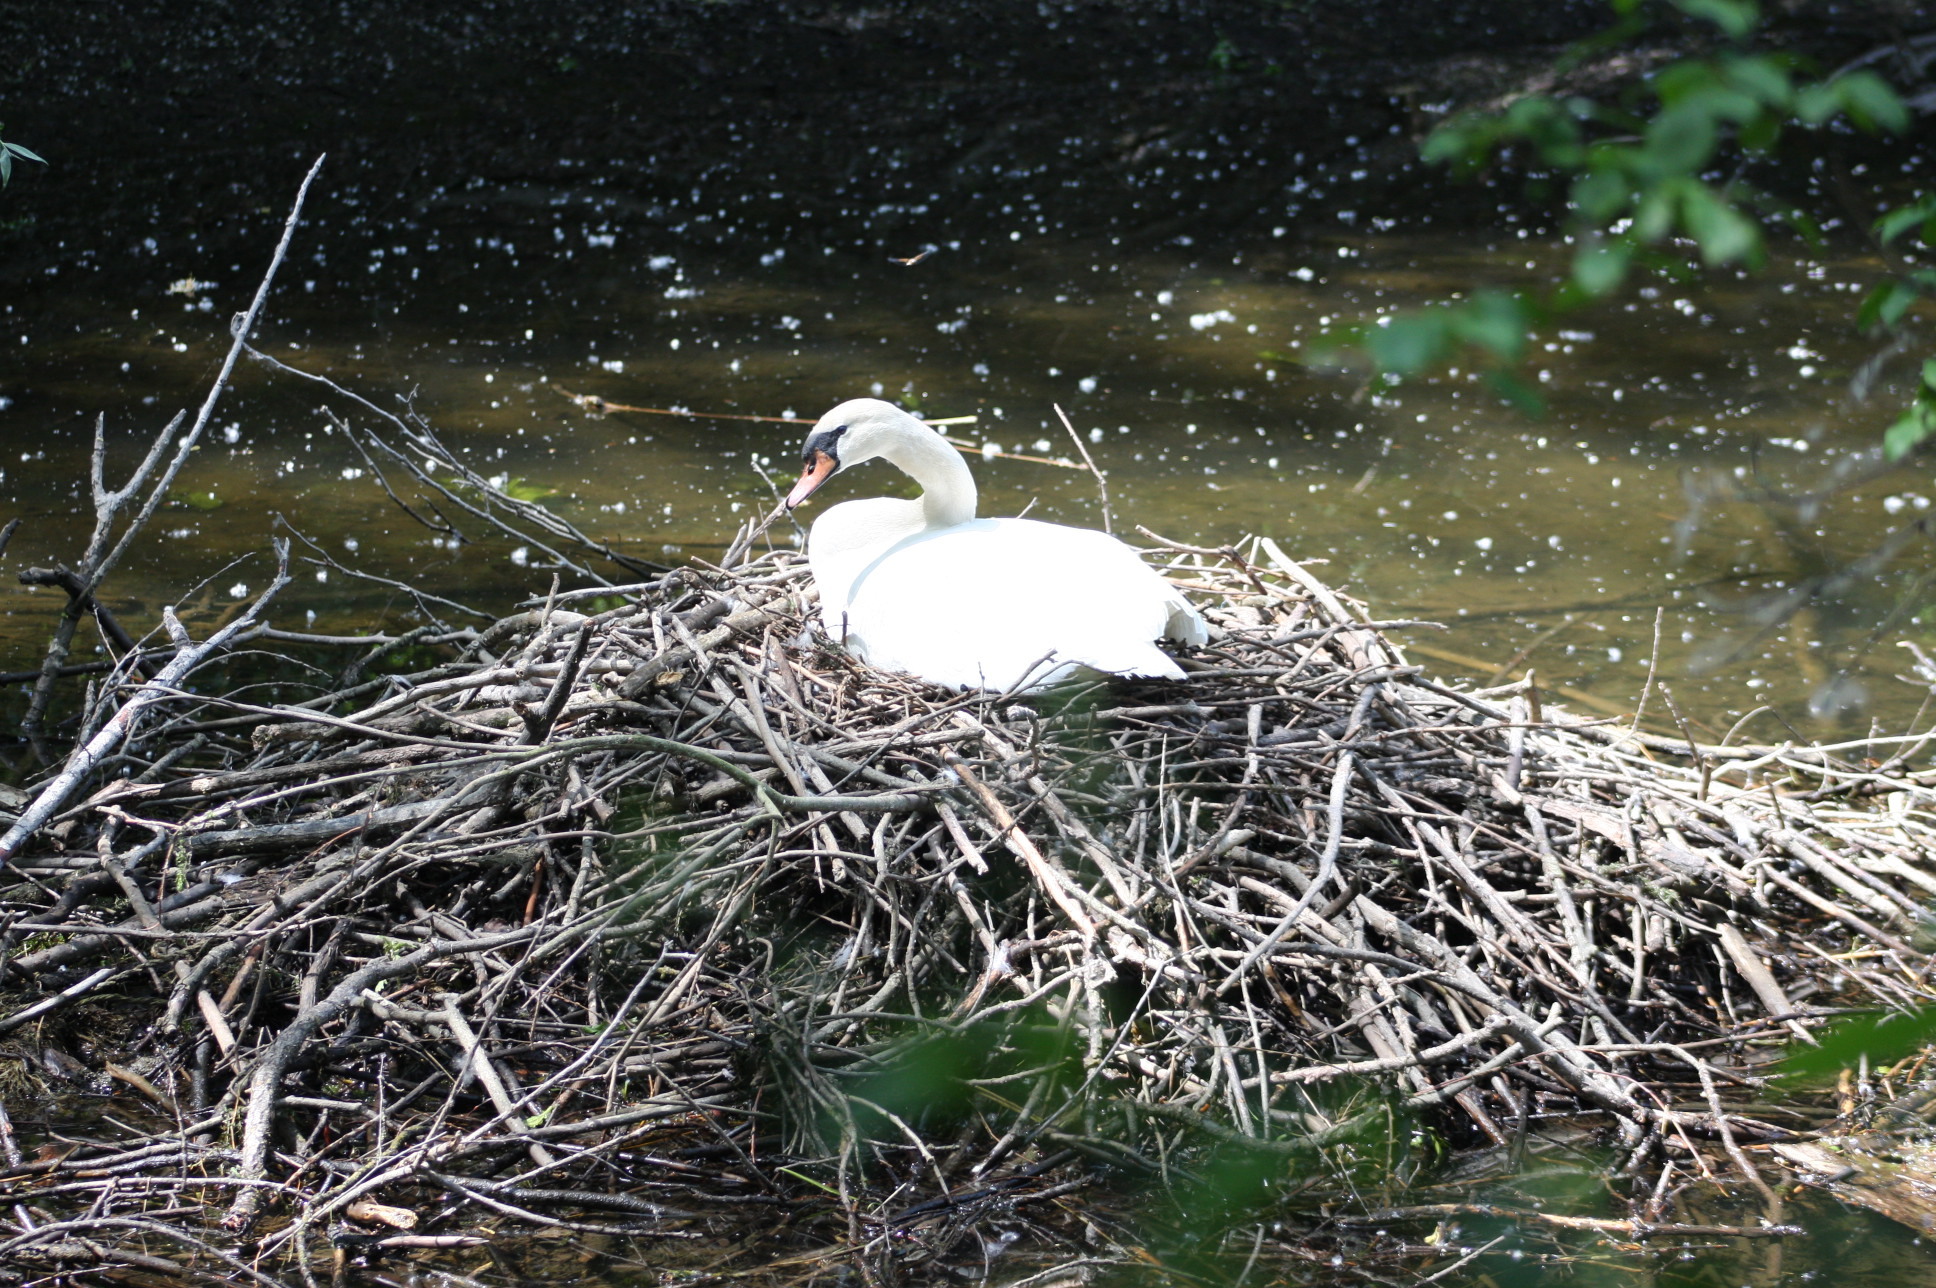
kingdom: Animalia
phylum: Chordata
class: Aves
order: Anseriformes
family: Anatidae
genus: Cygnus
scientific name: Cygnus olor
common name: Mute swan
